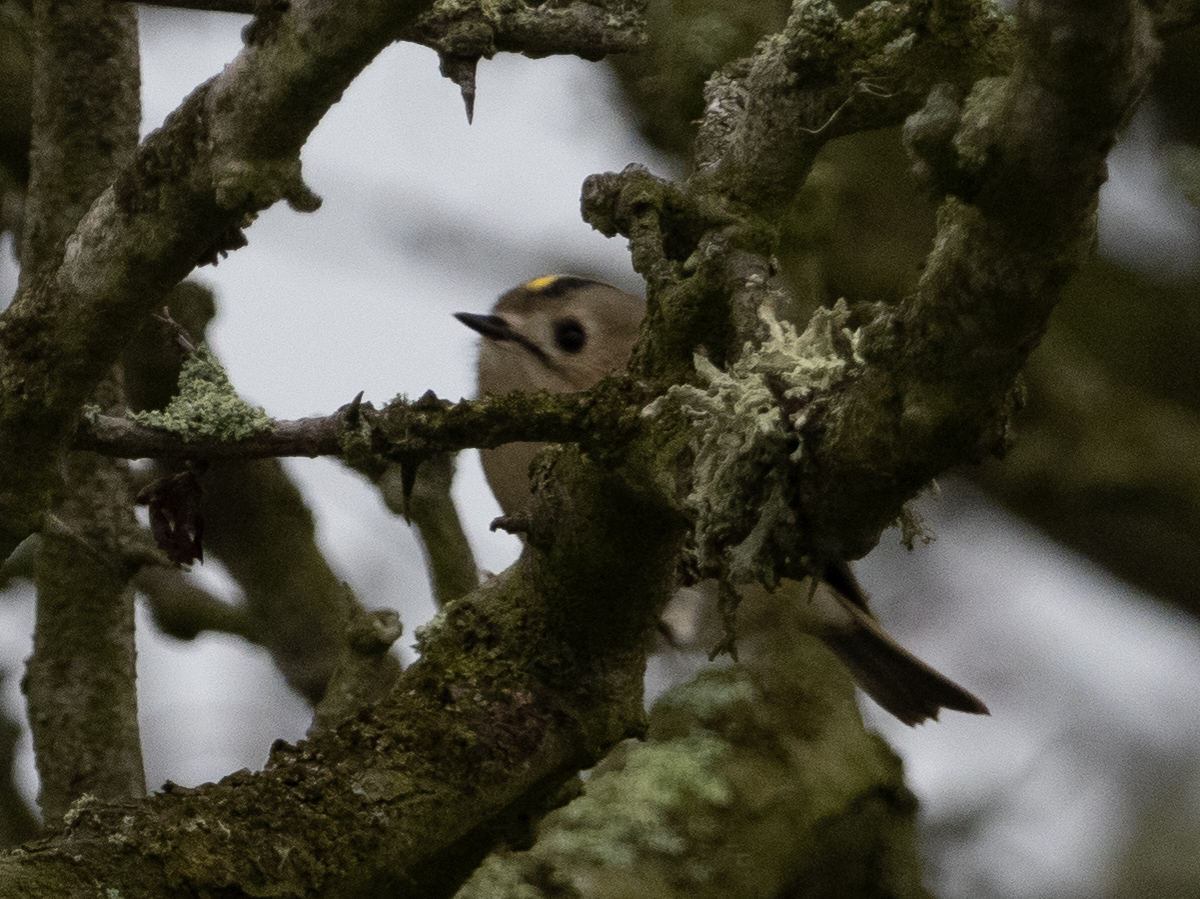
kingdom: Animalia
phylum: Chordata
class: Aves
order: Passeriformes
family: Regulidae
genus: Regulus
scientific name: Regulus regulus
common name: Goldcrest
